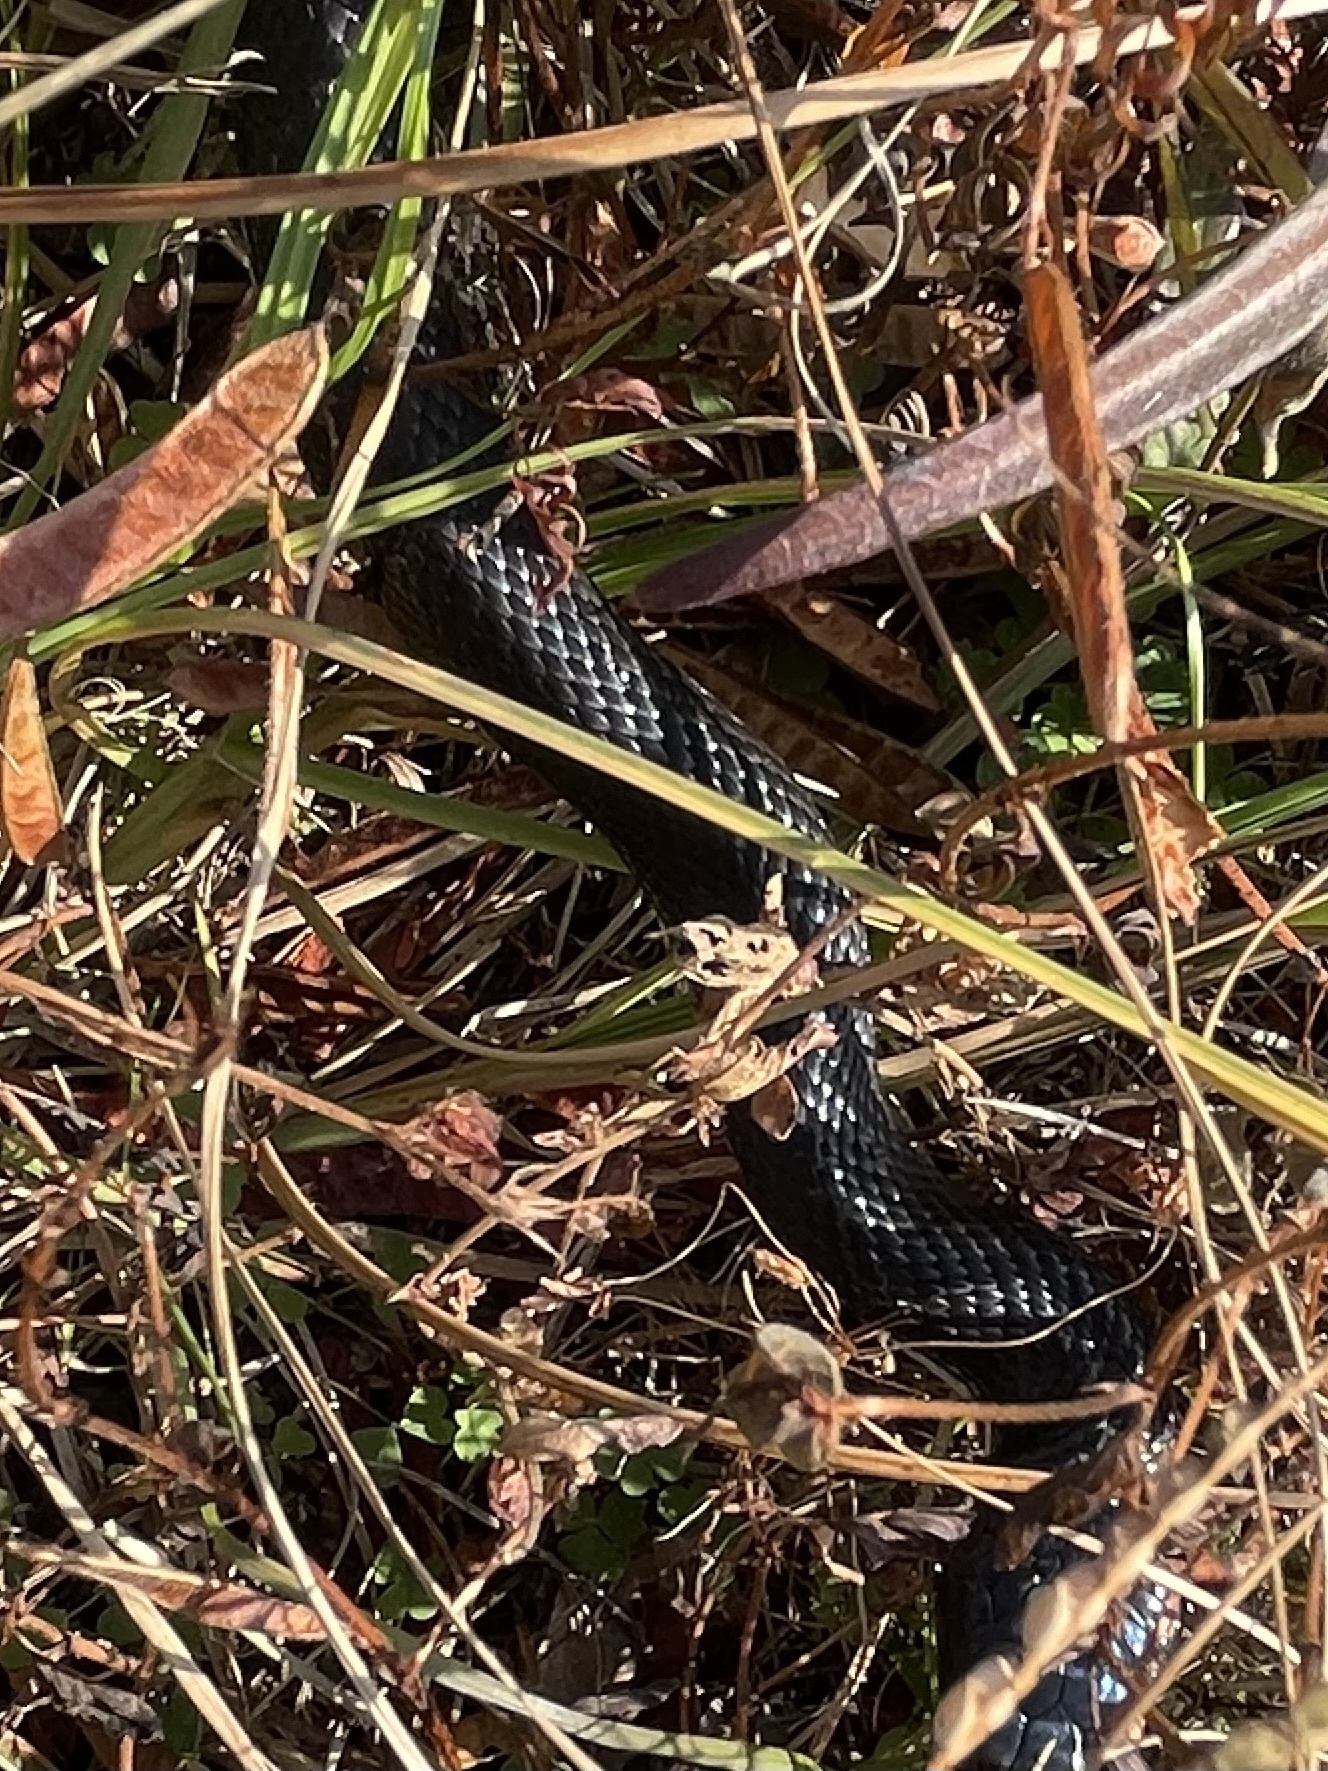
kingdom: Animalia
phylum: Chordata
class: Squamata
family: Colubridae
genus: Pantherophis
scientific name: Pantherophis alleghaniensis
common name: Eastern rat snake
